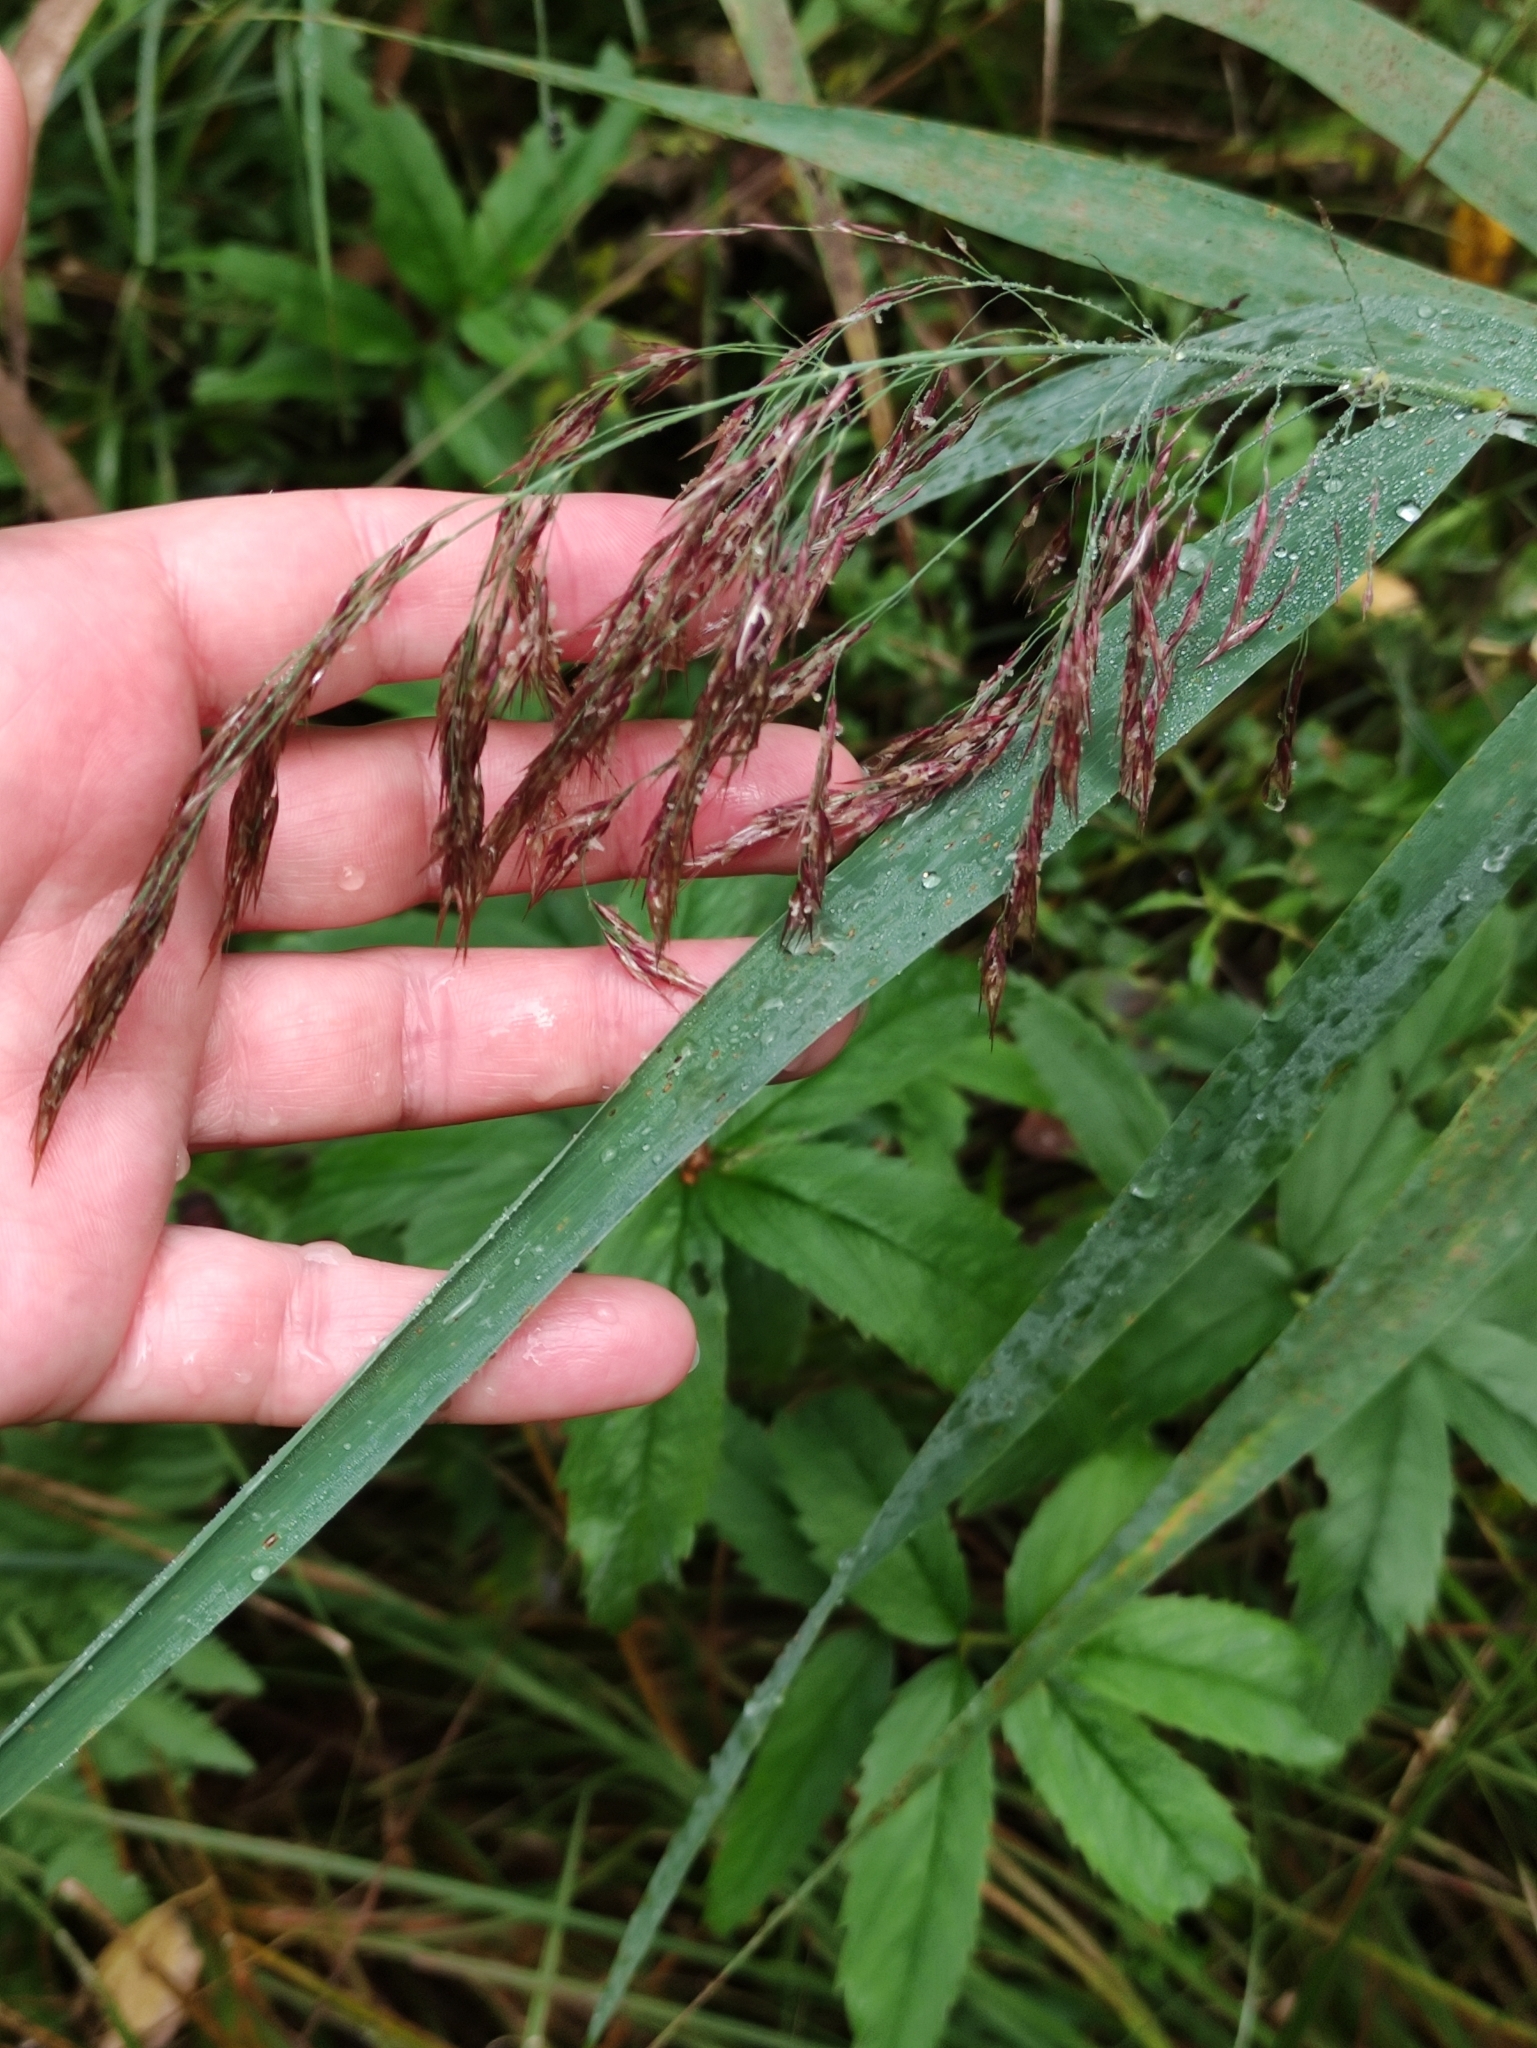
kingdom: Plantae
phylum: Tracheophyta
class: Liliopsida
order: Poales
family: Poaceae
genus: Phragmites
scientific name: Phragmites australis
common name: Common reed
